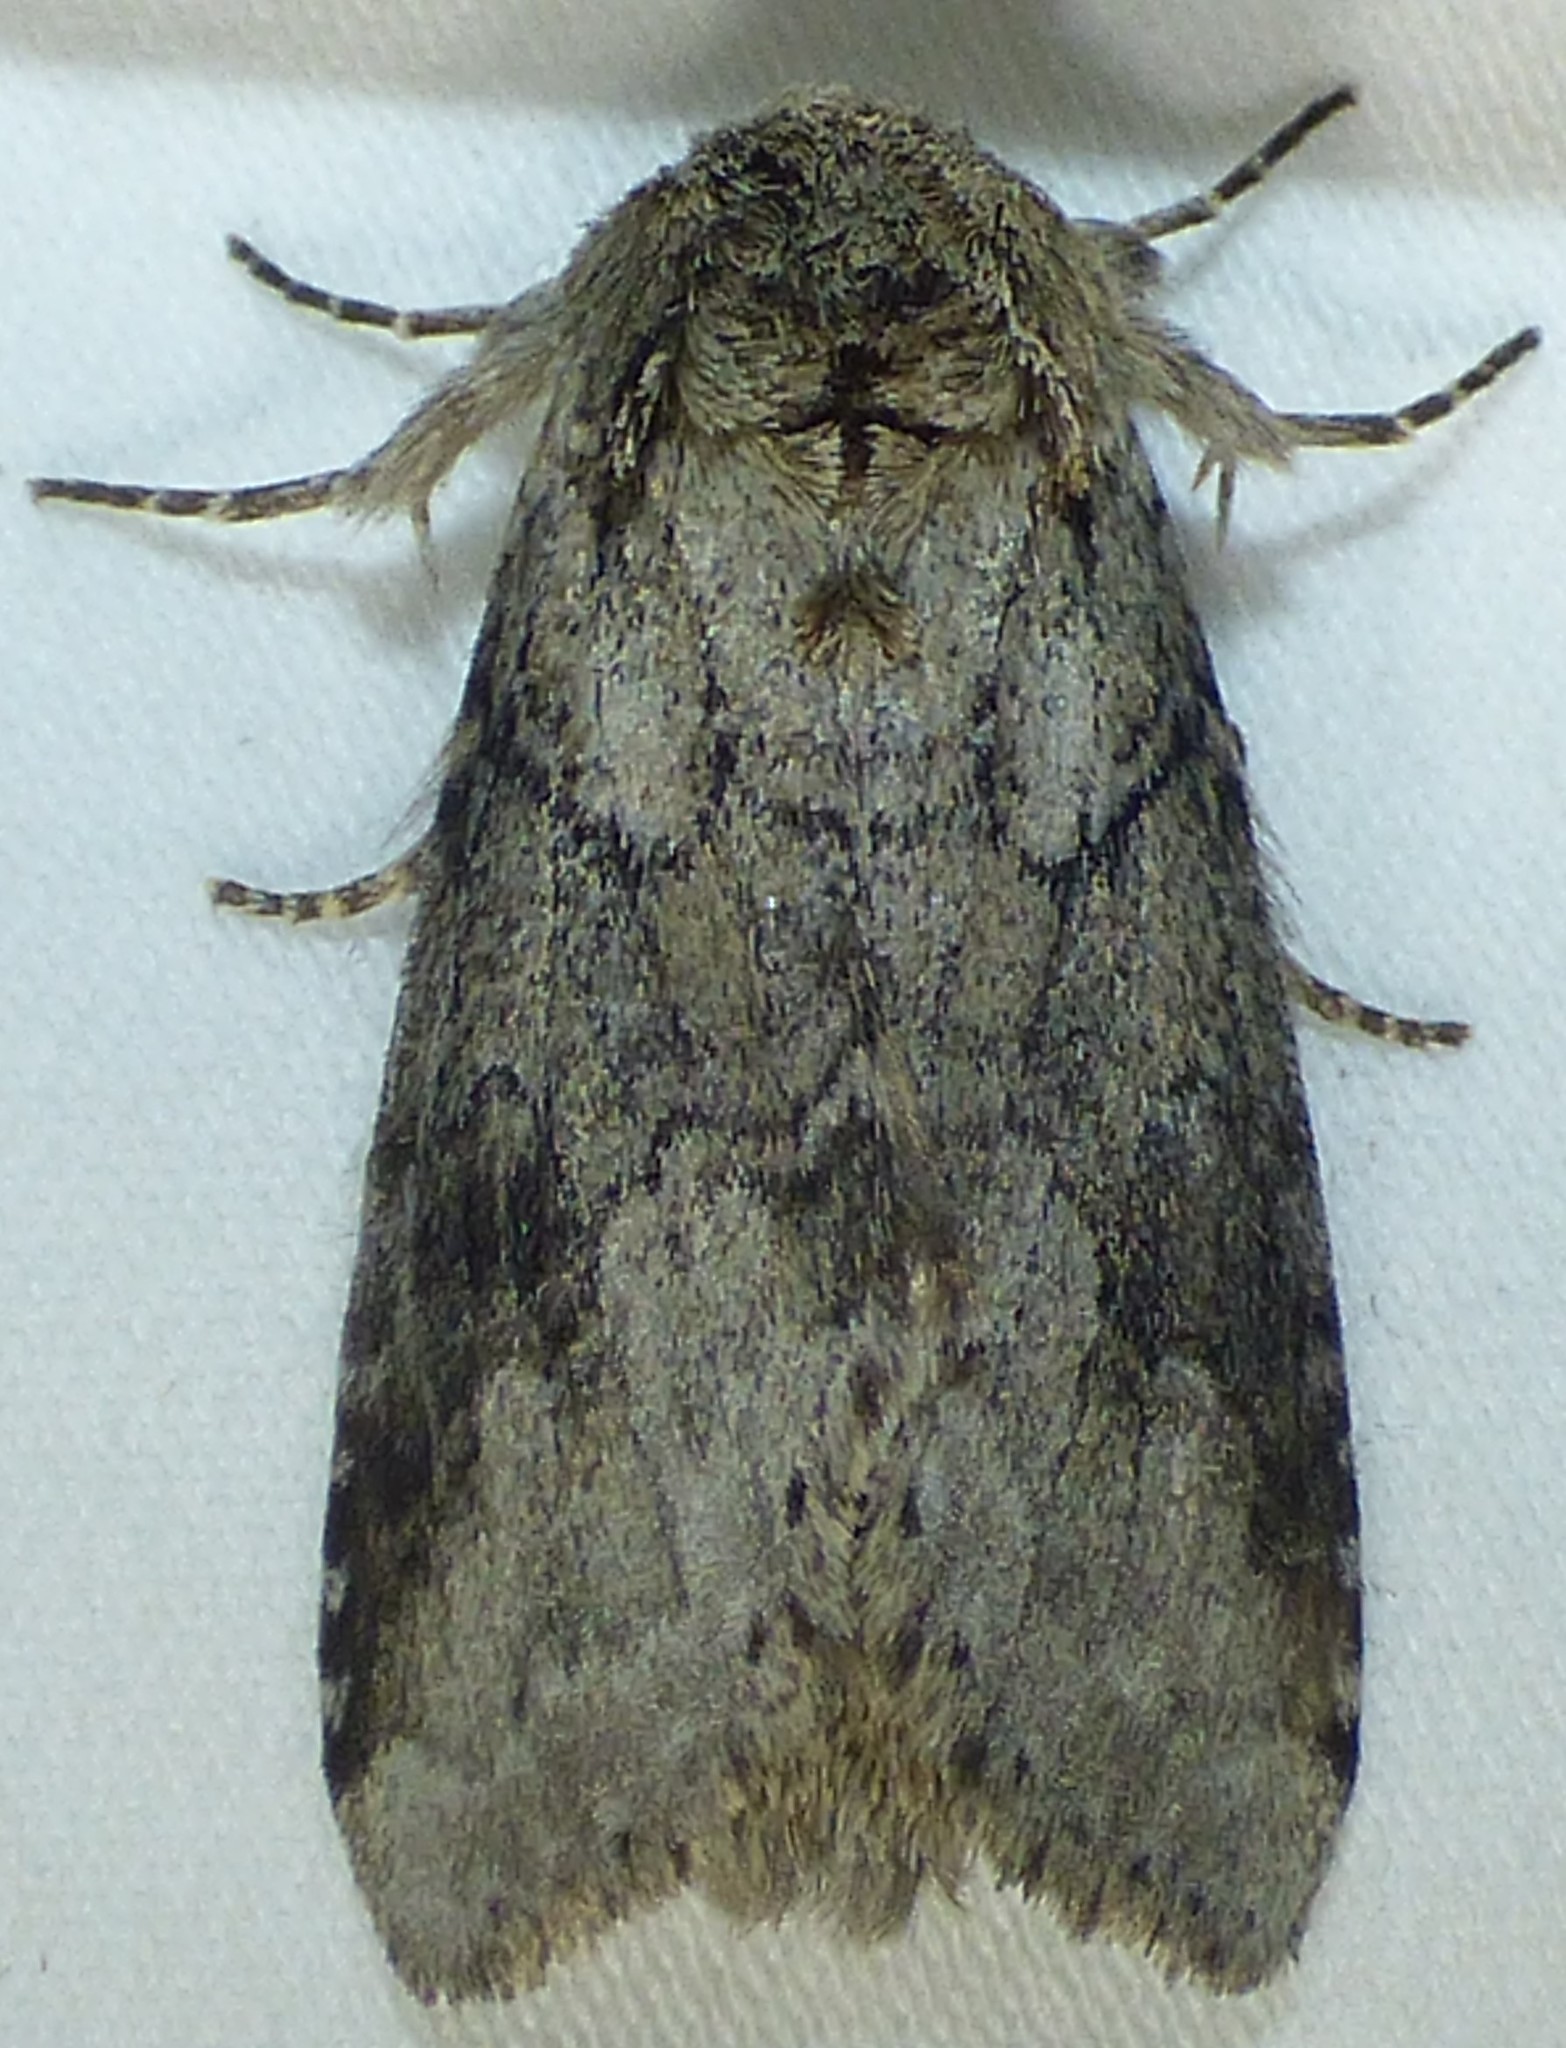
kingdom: Animalia
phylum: Arthropoda
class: Insecta
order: Lepidoptera
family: Notodontidae
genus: Lochmaeus
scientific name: Lochmaeus bilineata
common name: Double-lined prominent
